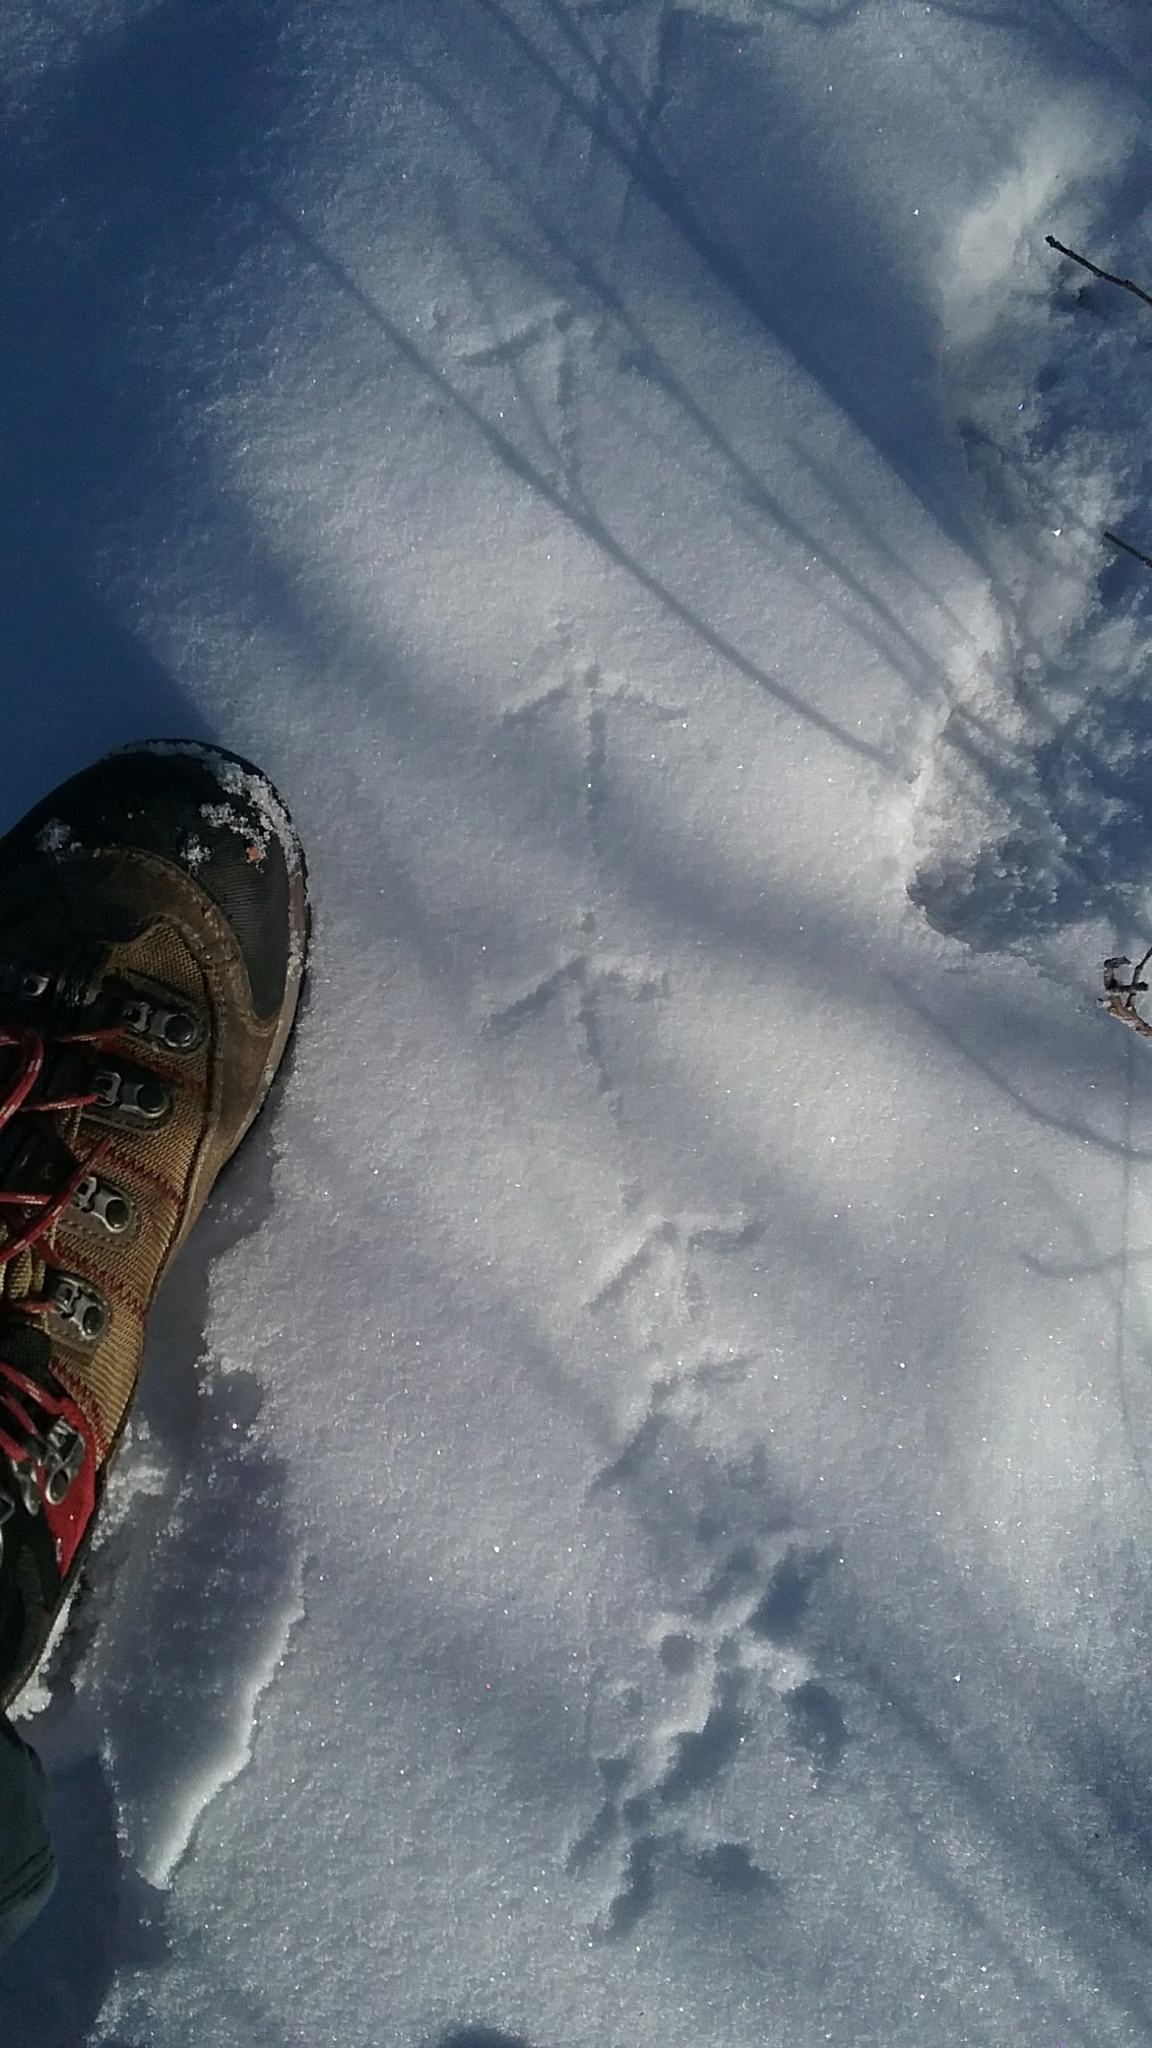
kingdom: Animalia
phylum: Chordata
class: Aves
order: Galliformes
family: Phasianidae
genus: Bonasa
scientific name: Bonasa umbellus
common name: Ruffed grouse
